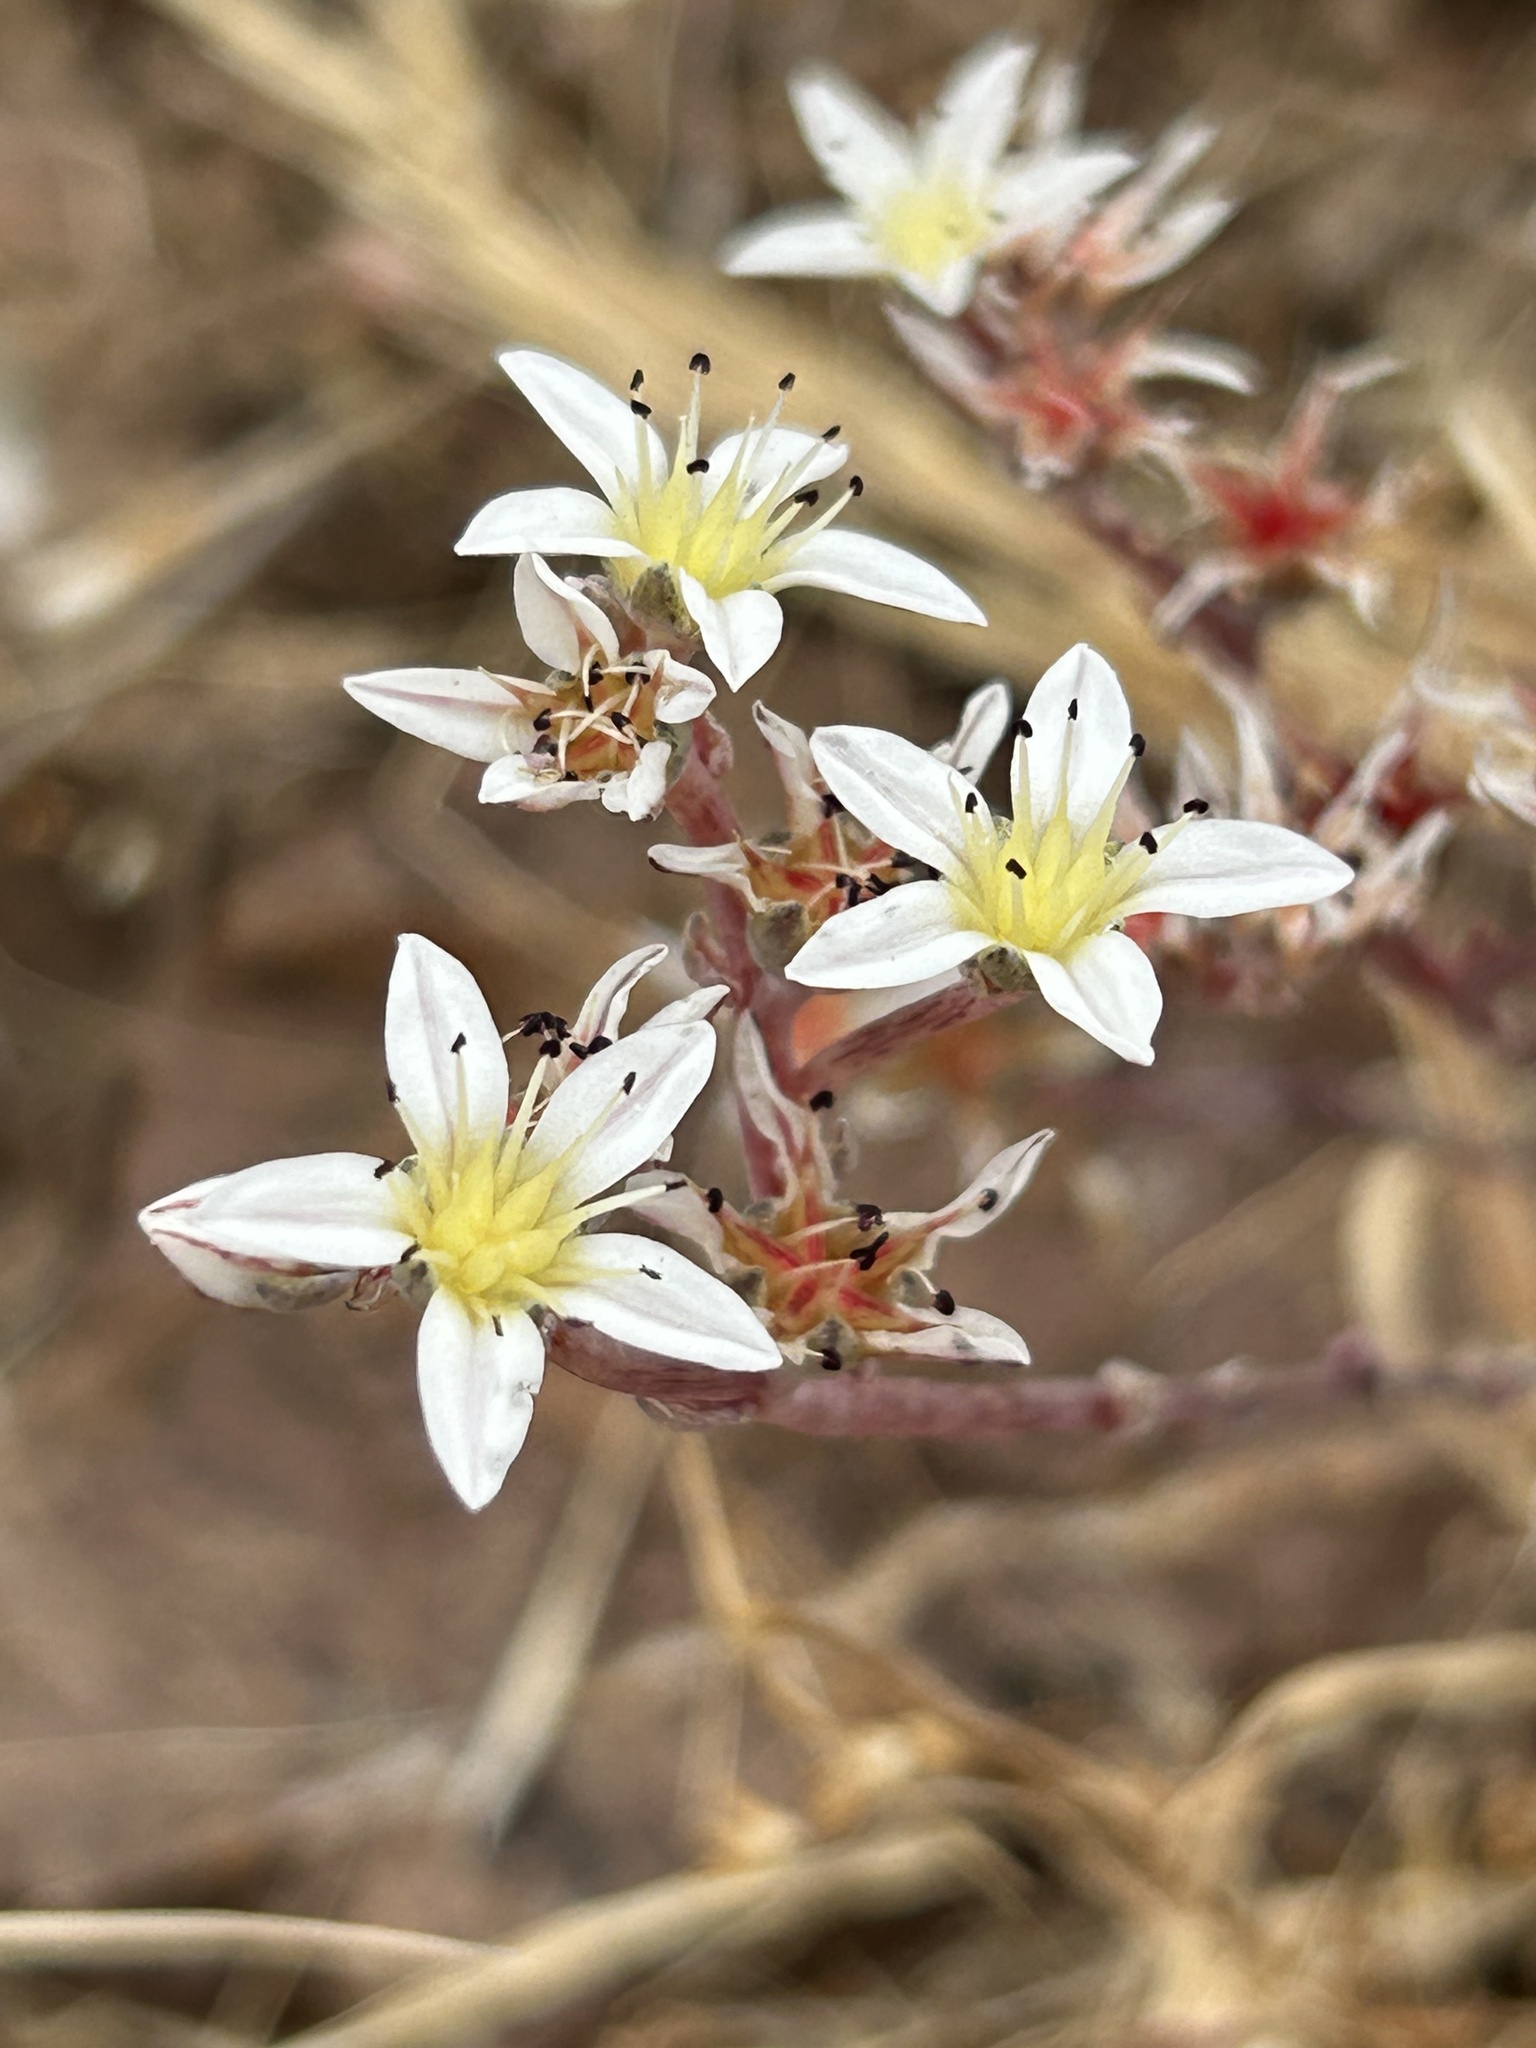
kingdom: Plantae
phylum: Tracheophyta
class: Magnoliopsida
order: Saxifragales
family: Crassulaceae
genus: Dudleya
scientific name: Dudleya blochmaniae
